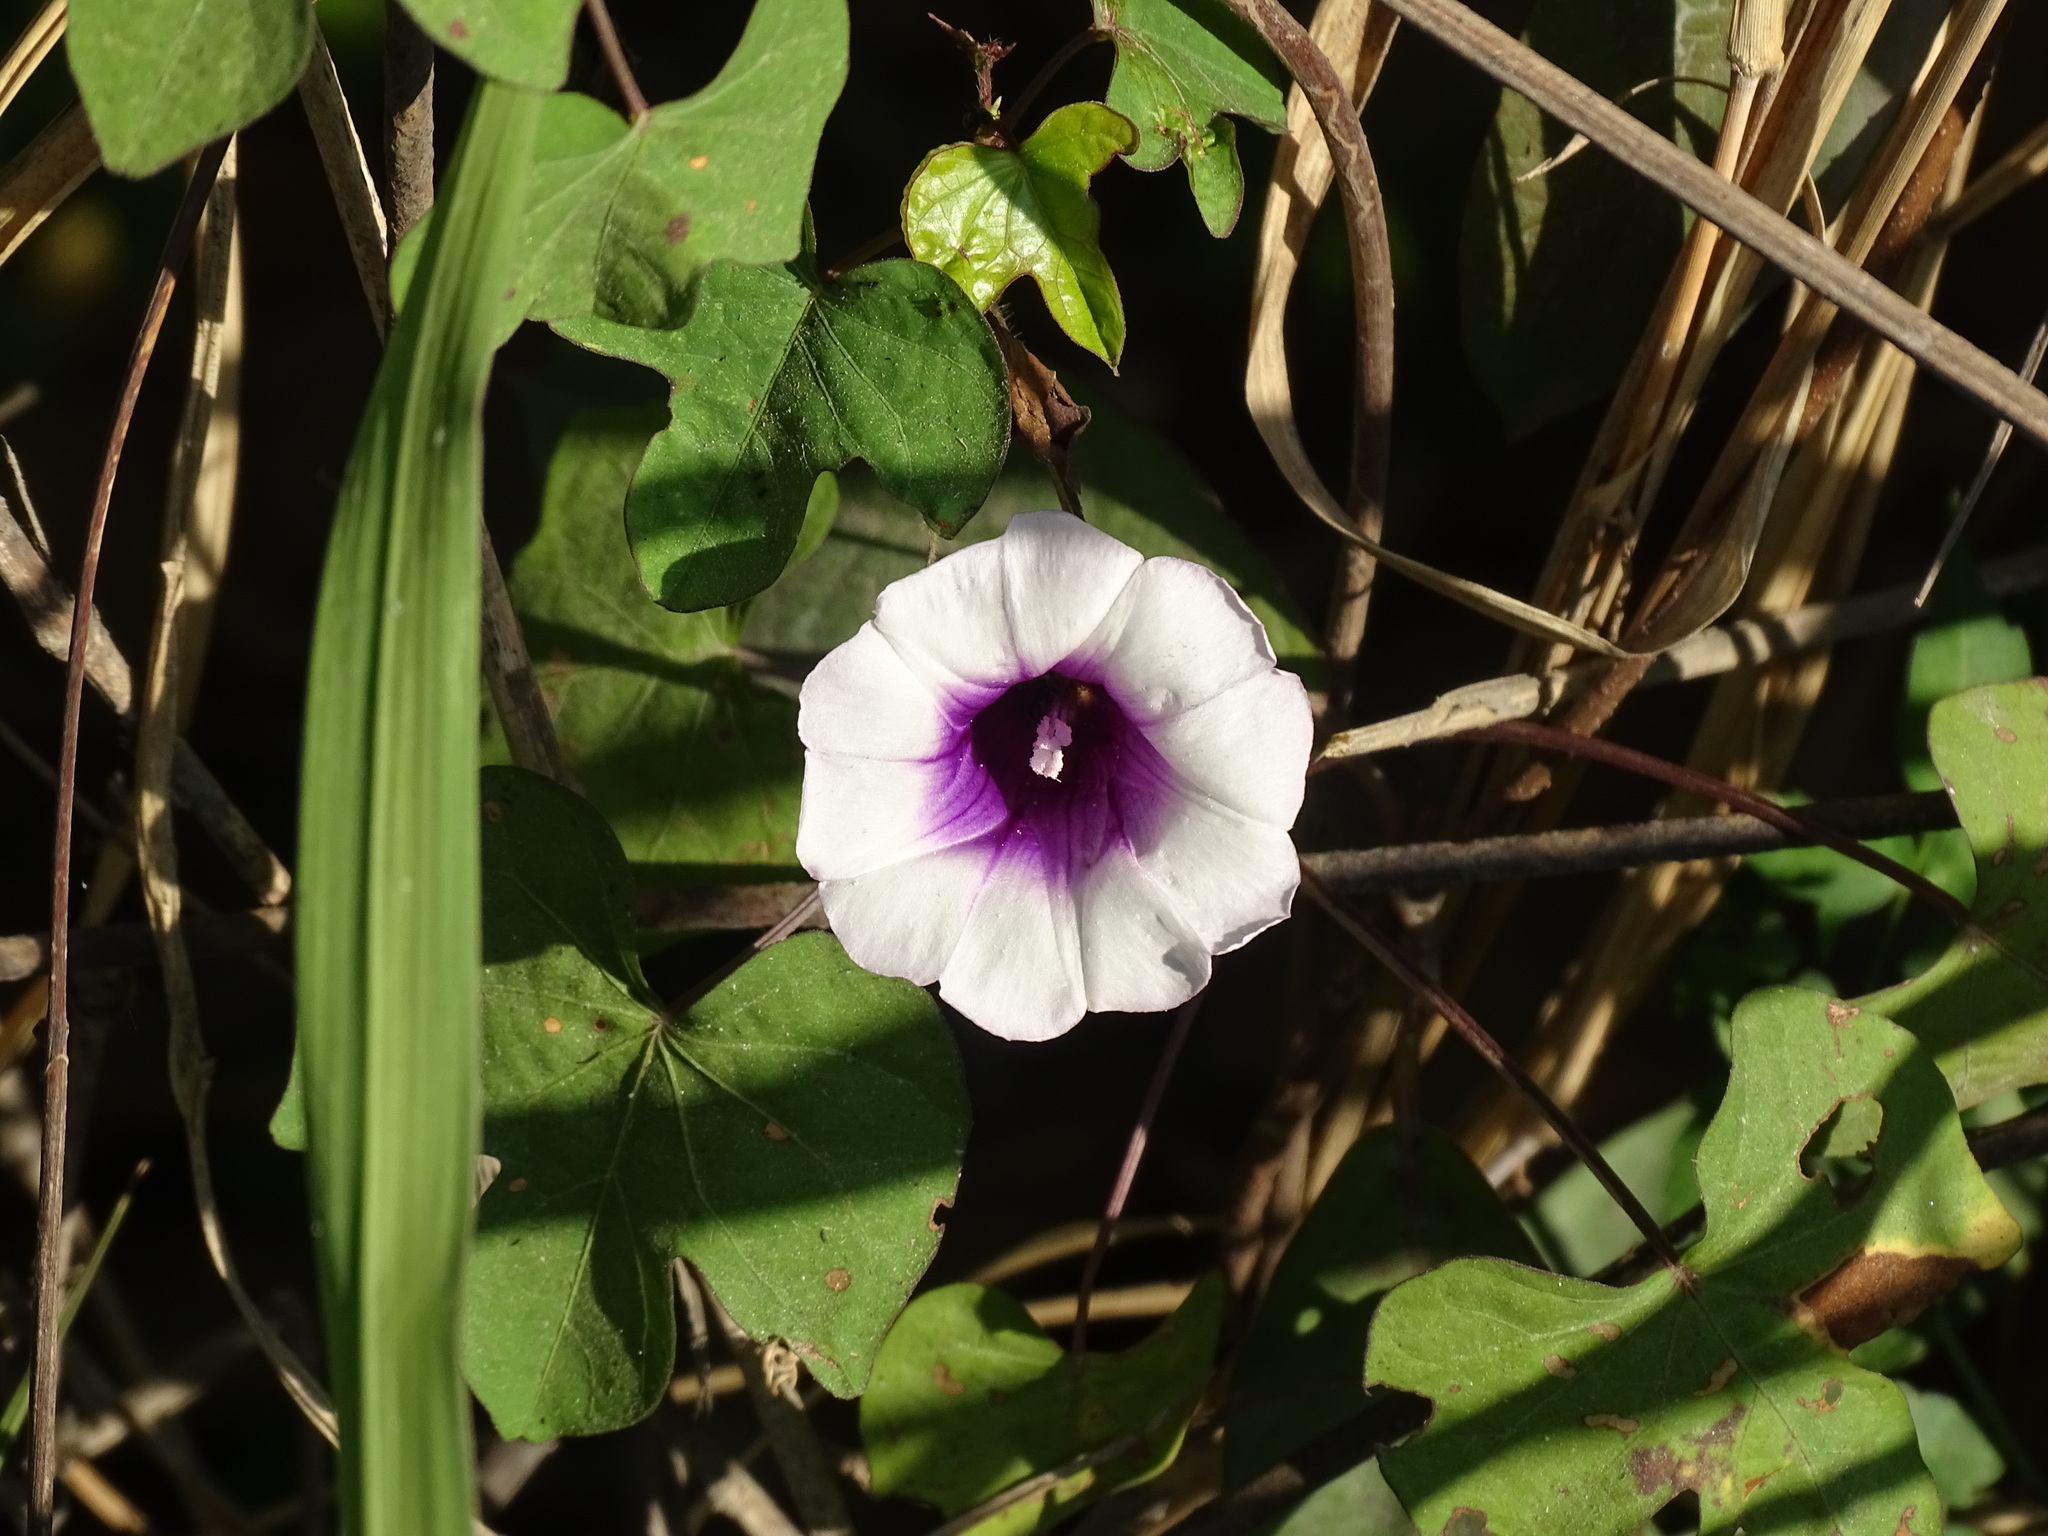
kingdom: Plantae
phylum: Tracheophyta
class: Magnoliopsida
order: Solanales
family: Convolvulaceae
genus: Ipomoea
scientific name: Ipomoea batatas
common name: Sweet-potato
